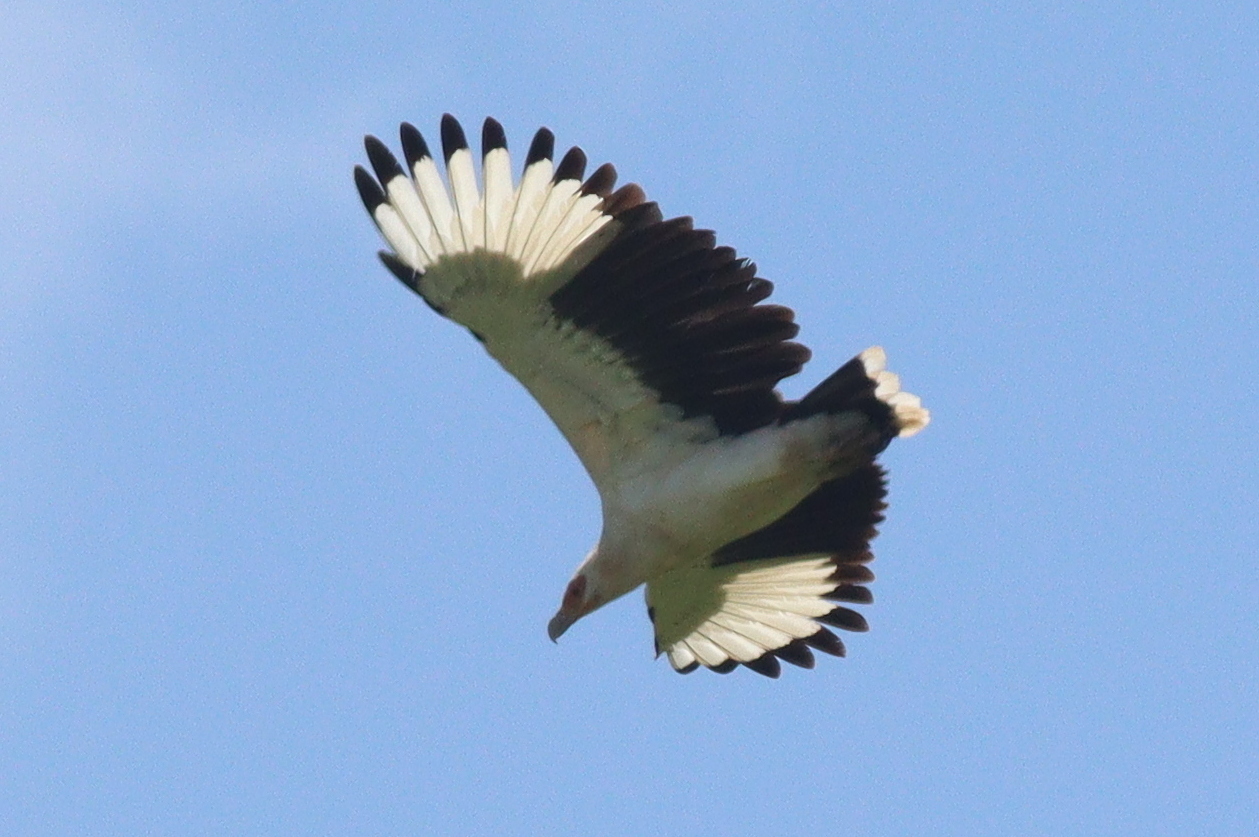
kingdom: Animalia
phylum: Chordata
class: Aves
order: Accipitriformes
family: Accipitridae
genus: Gypohierax
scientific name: Gypohierax angolensis
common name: Palm-nut vulture
